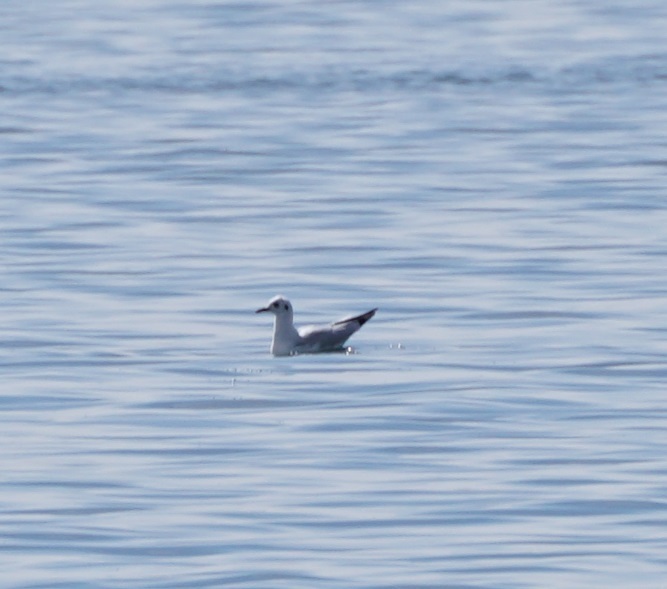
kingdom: Animalia
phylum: Chordata
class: Aves
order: Charadriiformes
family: Laridae
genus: Chroicocephalus
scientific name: Chroicocephalus serranus
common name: Andean gull
